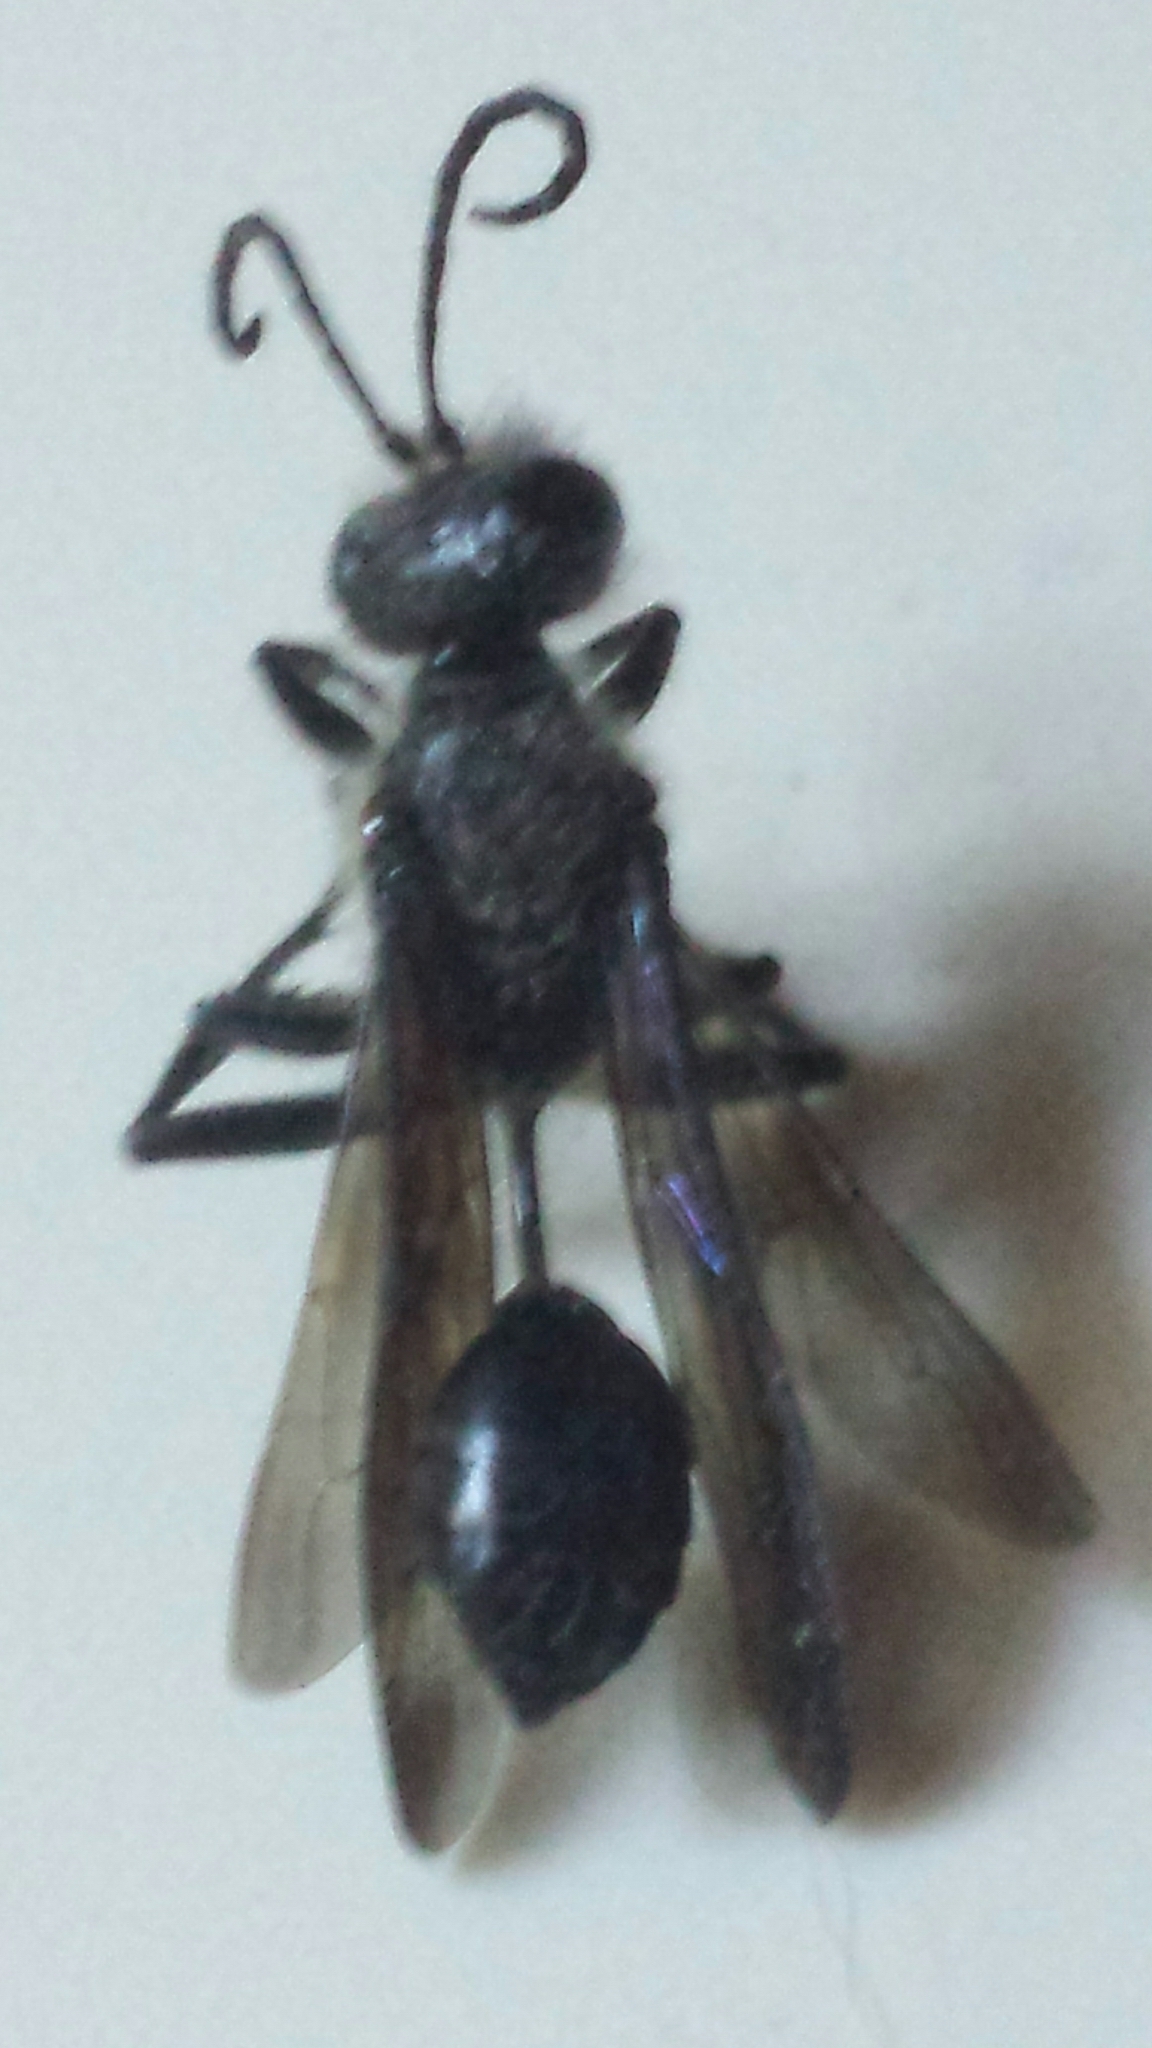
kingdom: Animalia
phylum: Arthropoda
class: Insecta
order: Hymenoptera
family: Sphecidae
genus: Isodontia
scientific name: Isodontia mexicana
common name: Mud dauber
